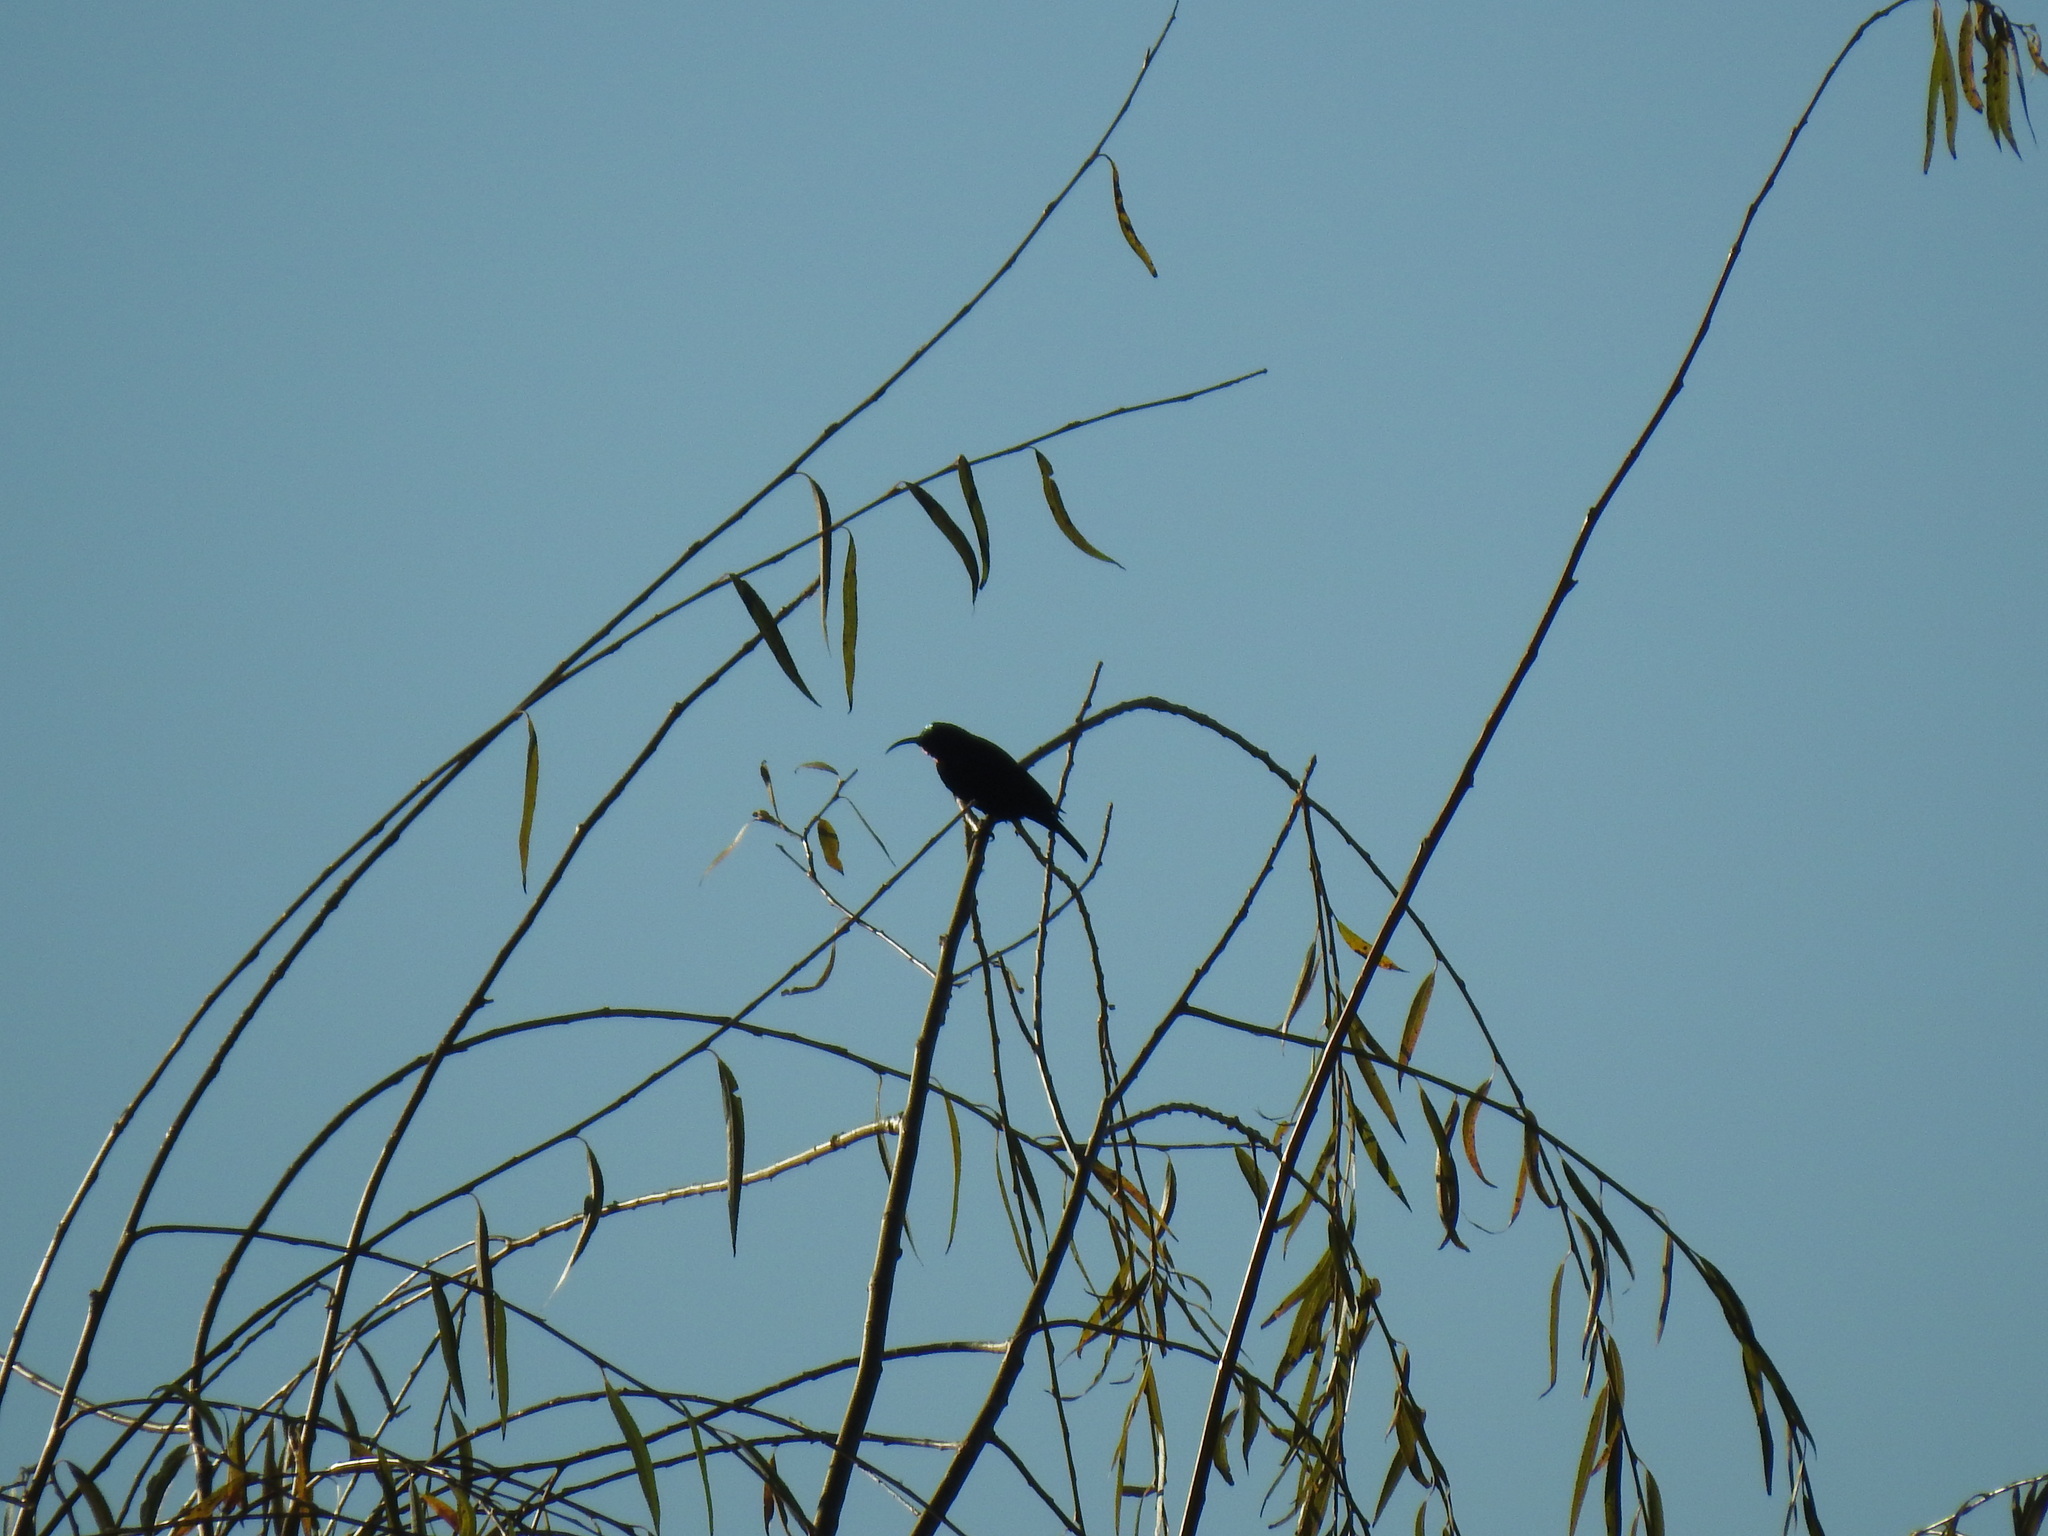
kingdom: Animalia
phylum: Chordata
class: Aves
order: Passeriformes
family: Nectariniidae
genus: Chalcomitra
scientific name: Chalcomitra amethystina
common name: Amethyst sunbird
